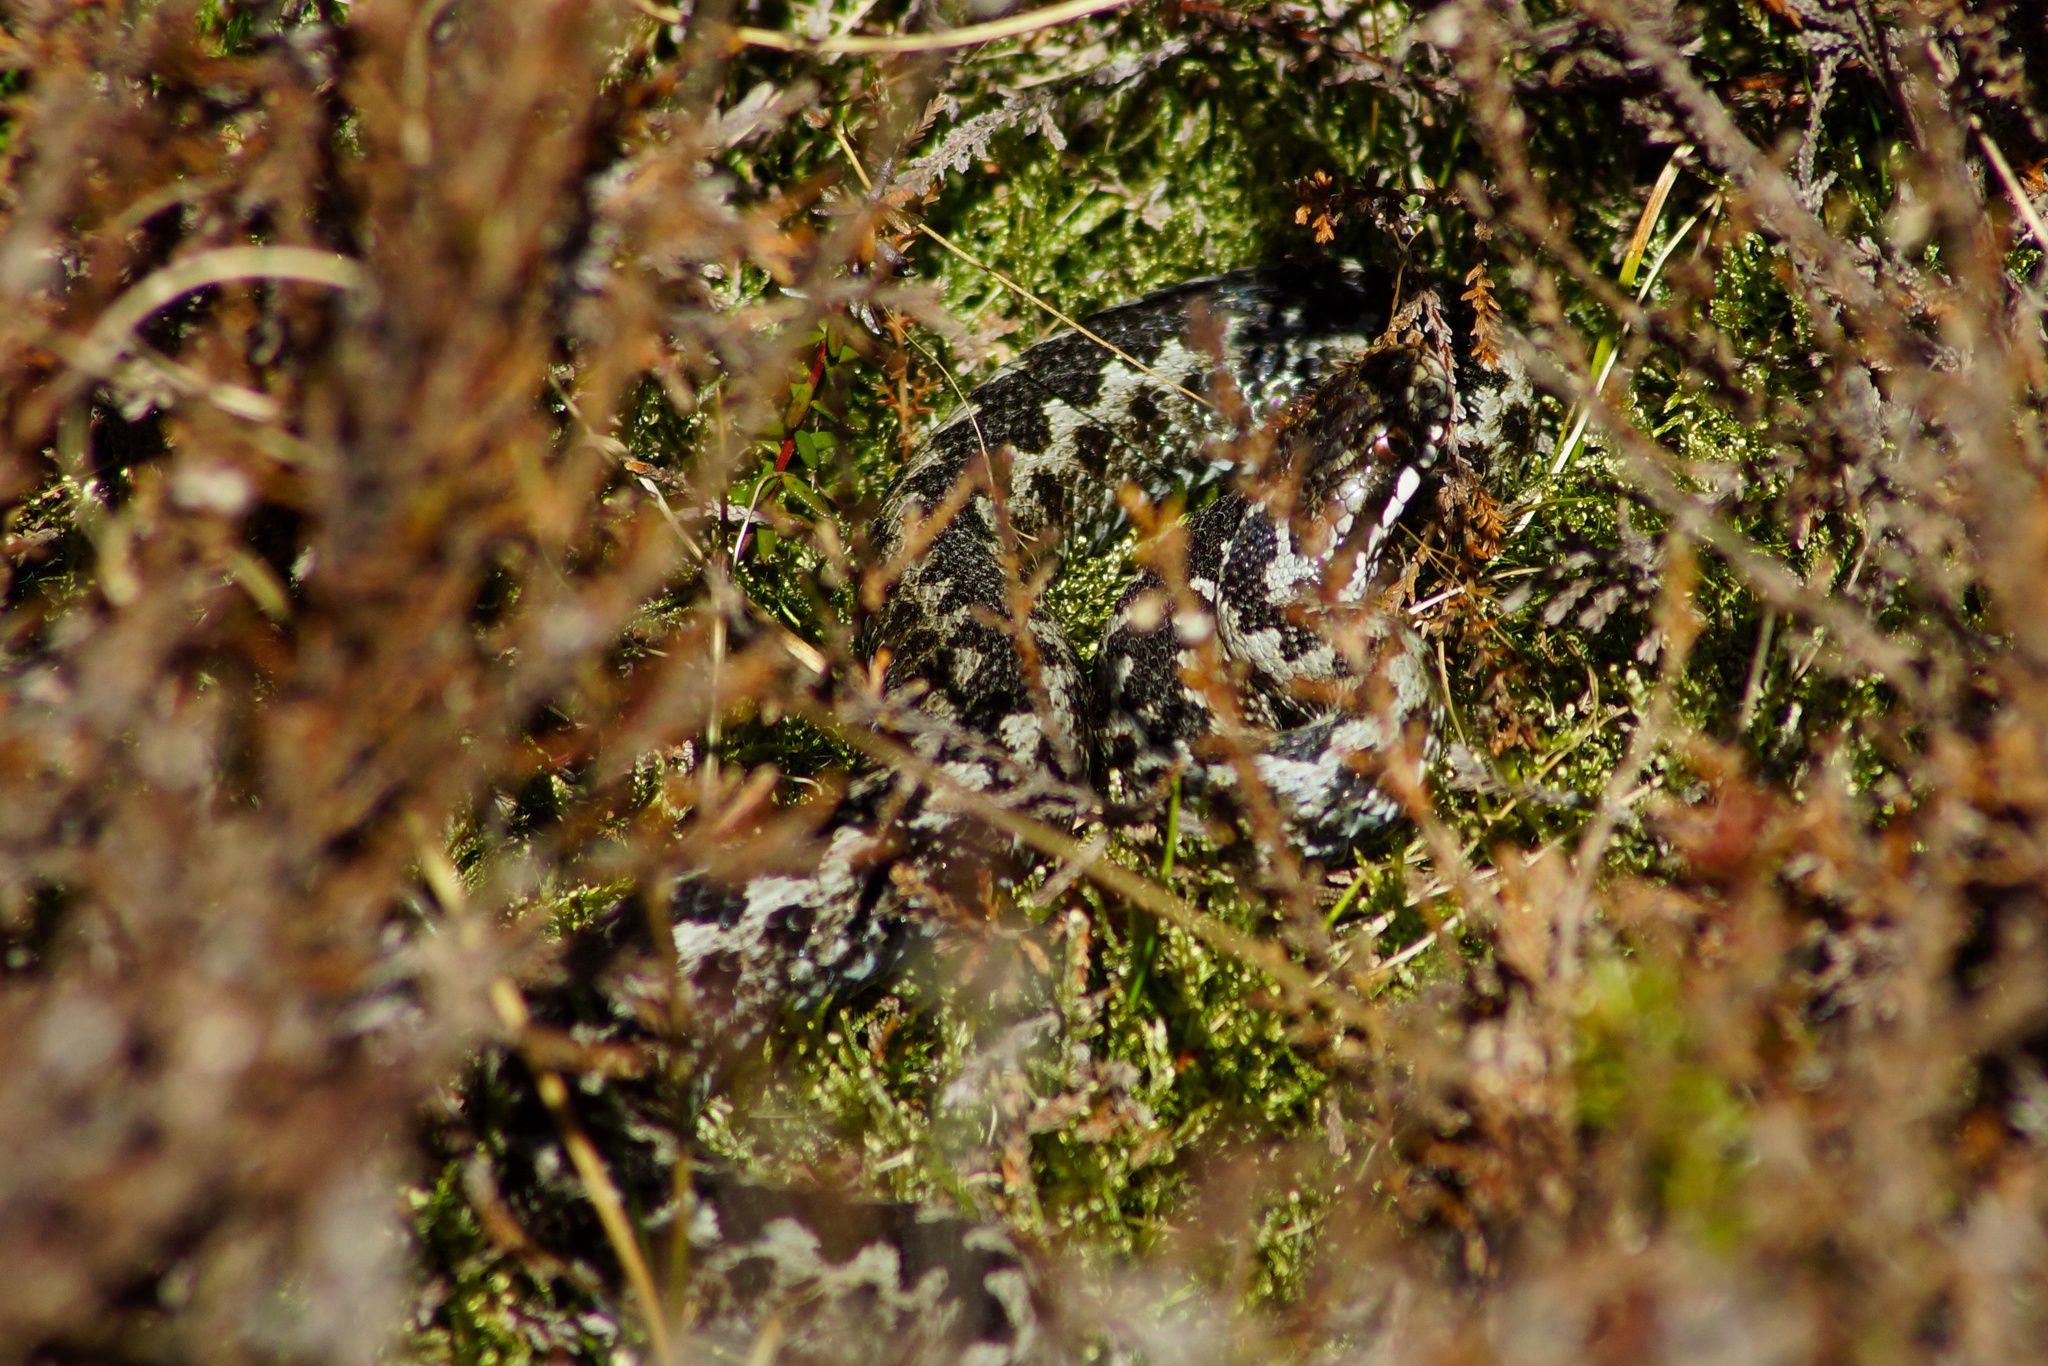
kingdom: Animalia
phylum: Chordata
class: Squamata
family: Viperidae
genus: Vipera
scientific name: Vipera berus
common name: Adder
